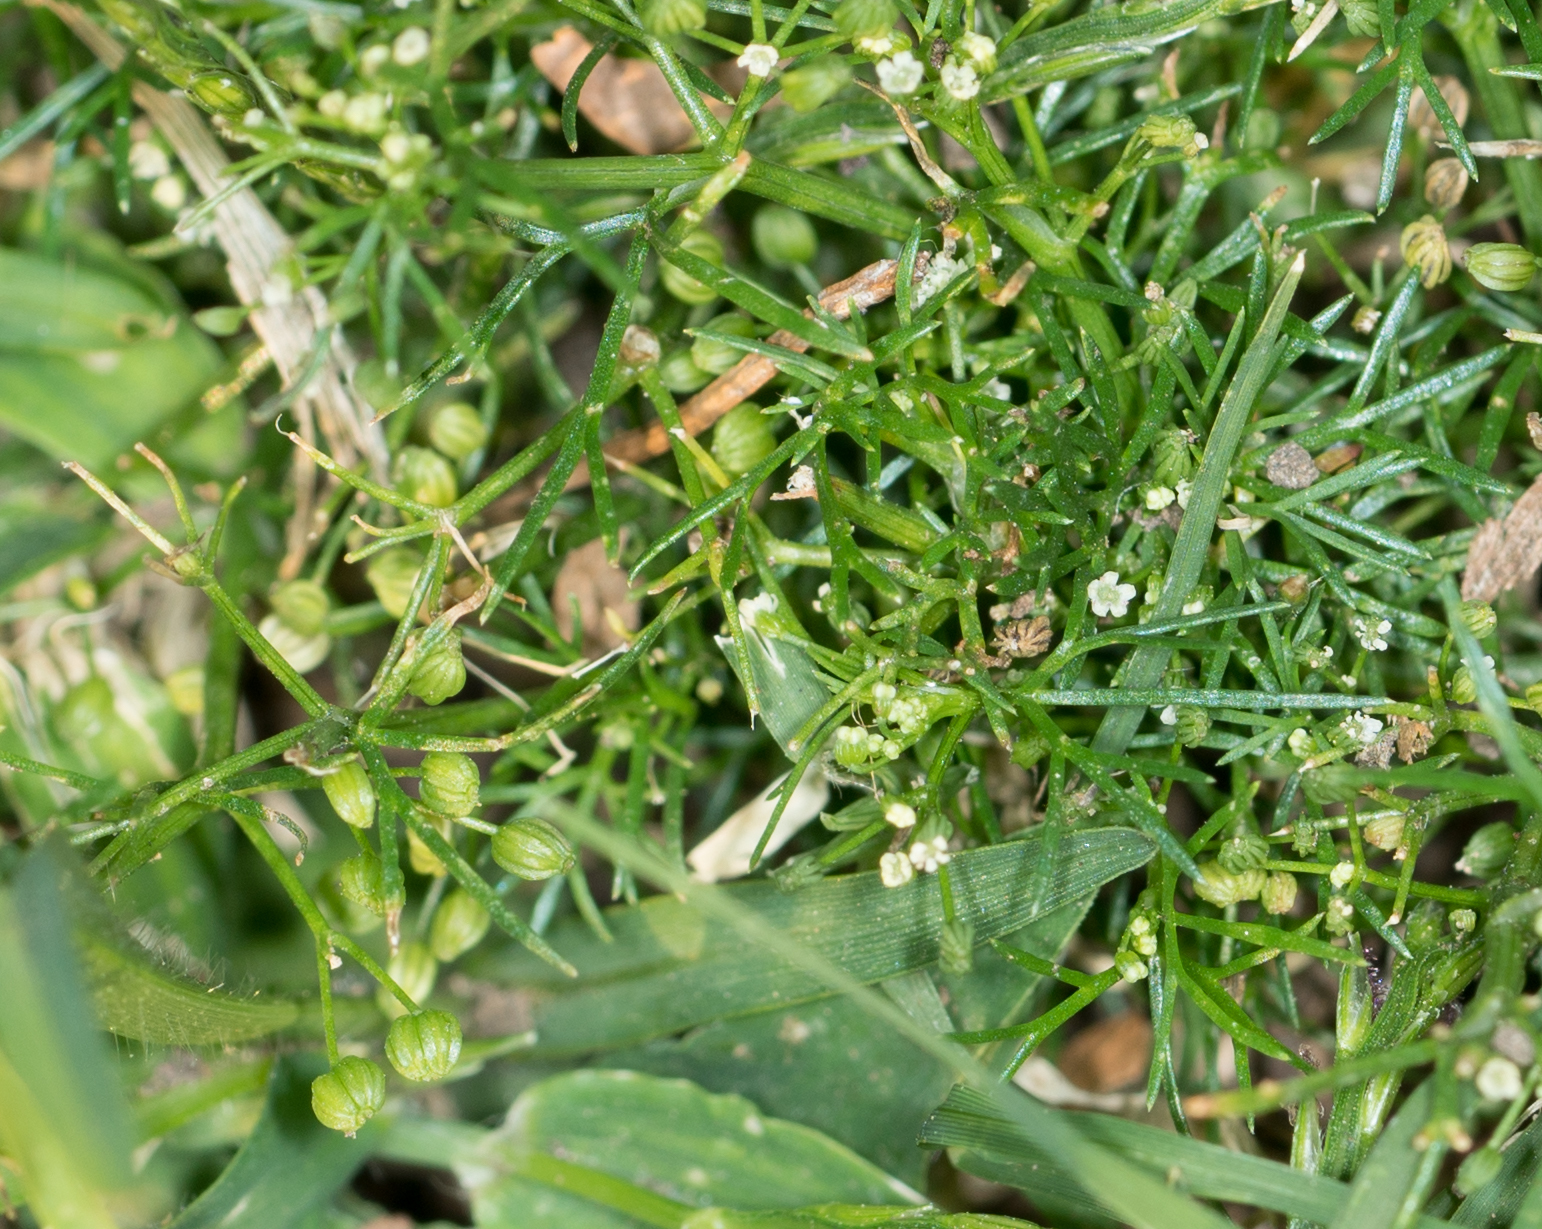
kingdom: Plantae
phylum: Tracheophyta
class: Magnoliopsida
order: Apiales
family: Apiaceae
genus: Cyclospermum
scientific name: Cyclospermum leptophyllum
